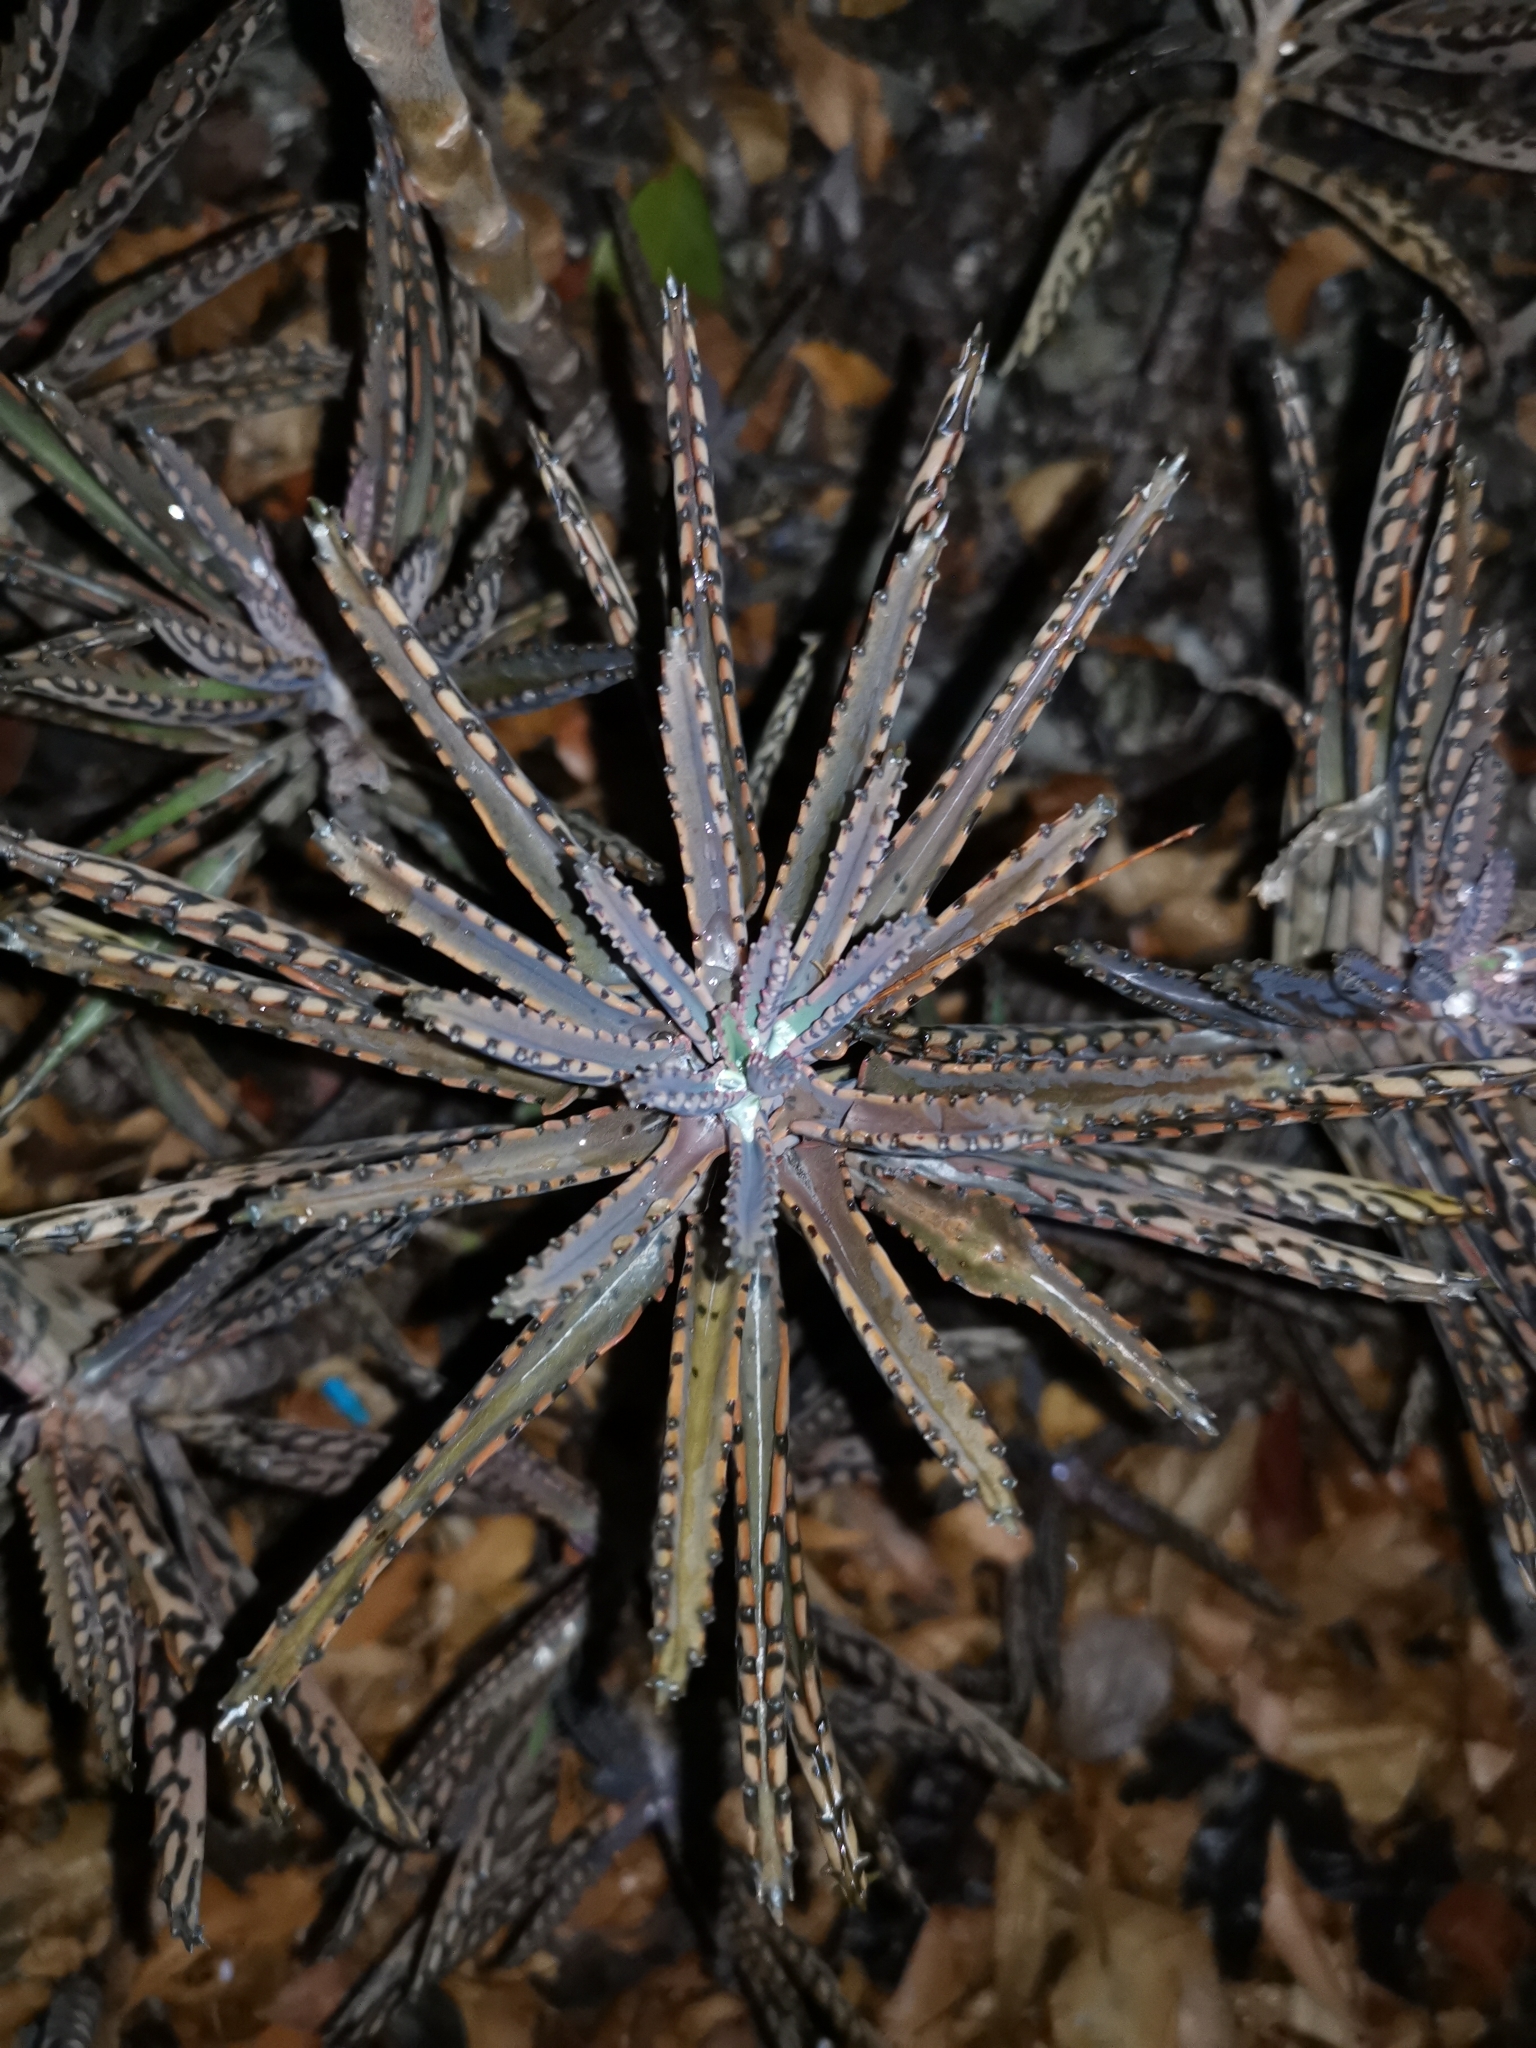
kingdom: Plantae
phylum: Tracheophyta
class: Magnoliopsida
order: Saxifragales
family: Crassulaceae
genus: Kalanchoe
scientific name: Kalanchoe houghtonii
